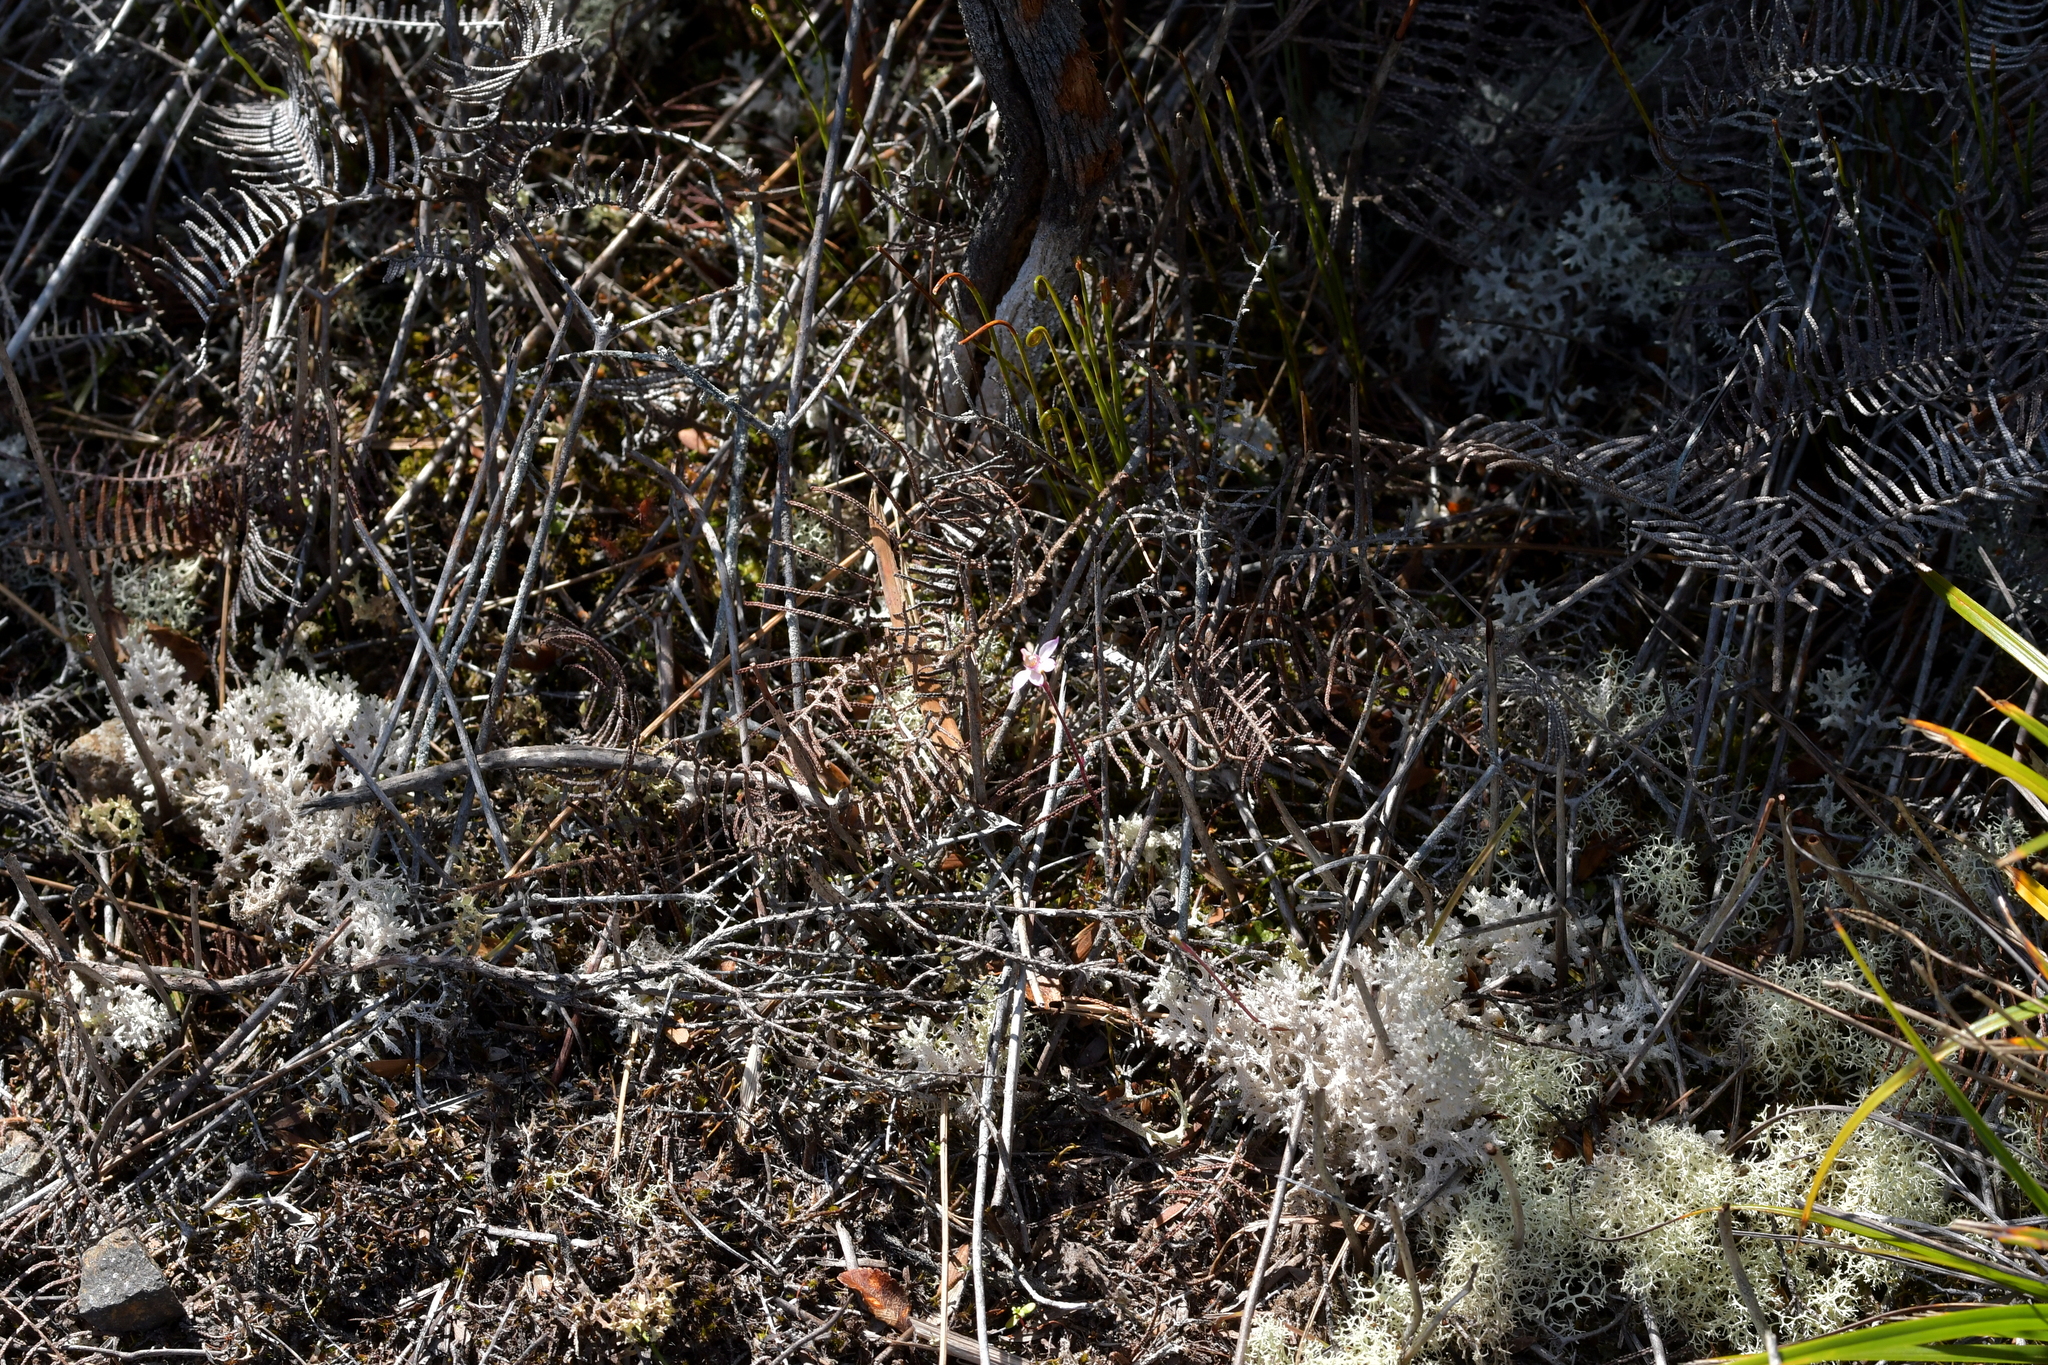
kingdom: Plantae
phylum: Tracheophyta
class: Liliopsida
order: Asparagales
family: Orchidaceae
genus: Caladenia
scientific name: Caladenia alata
